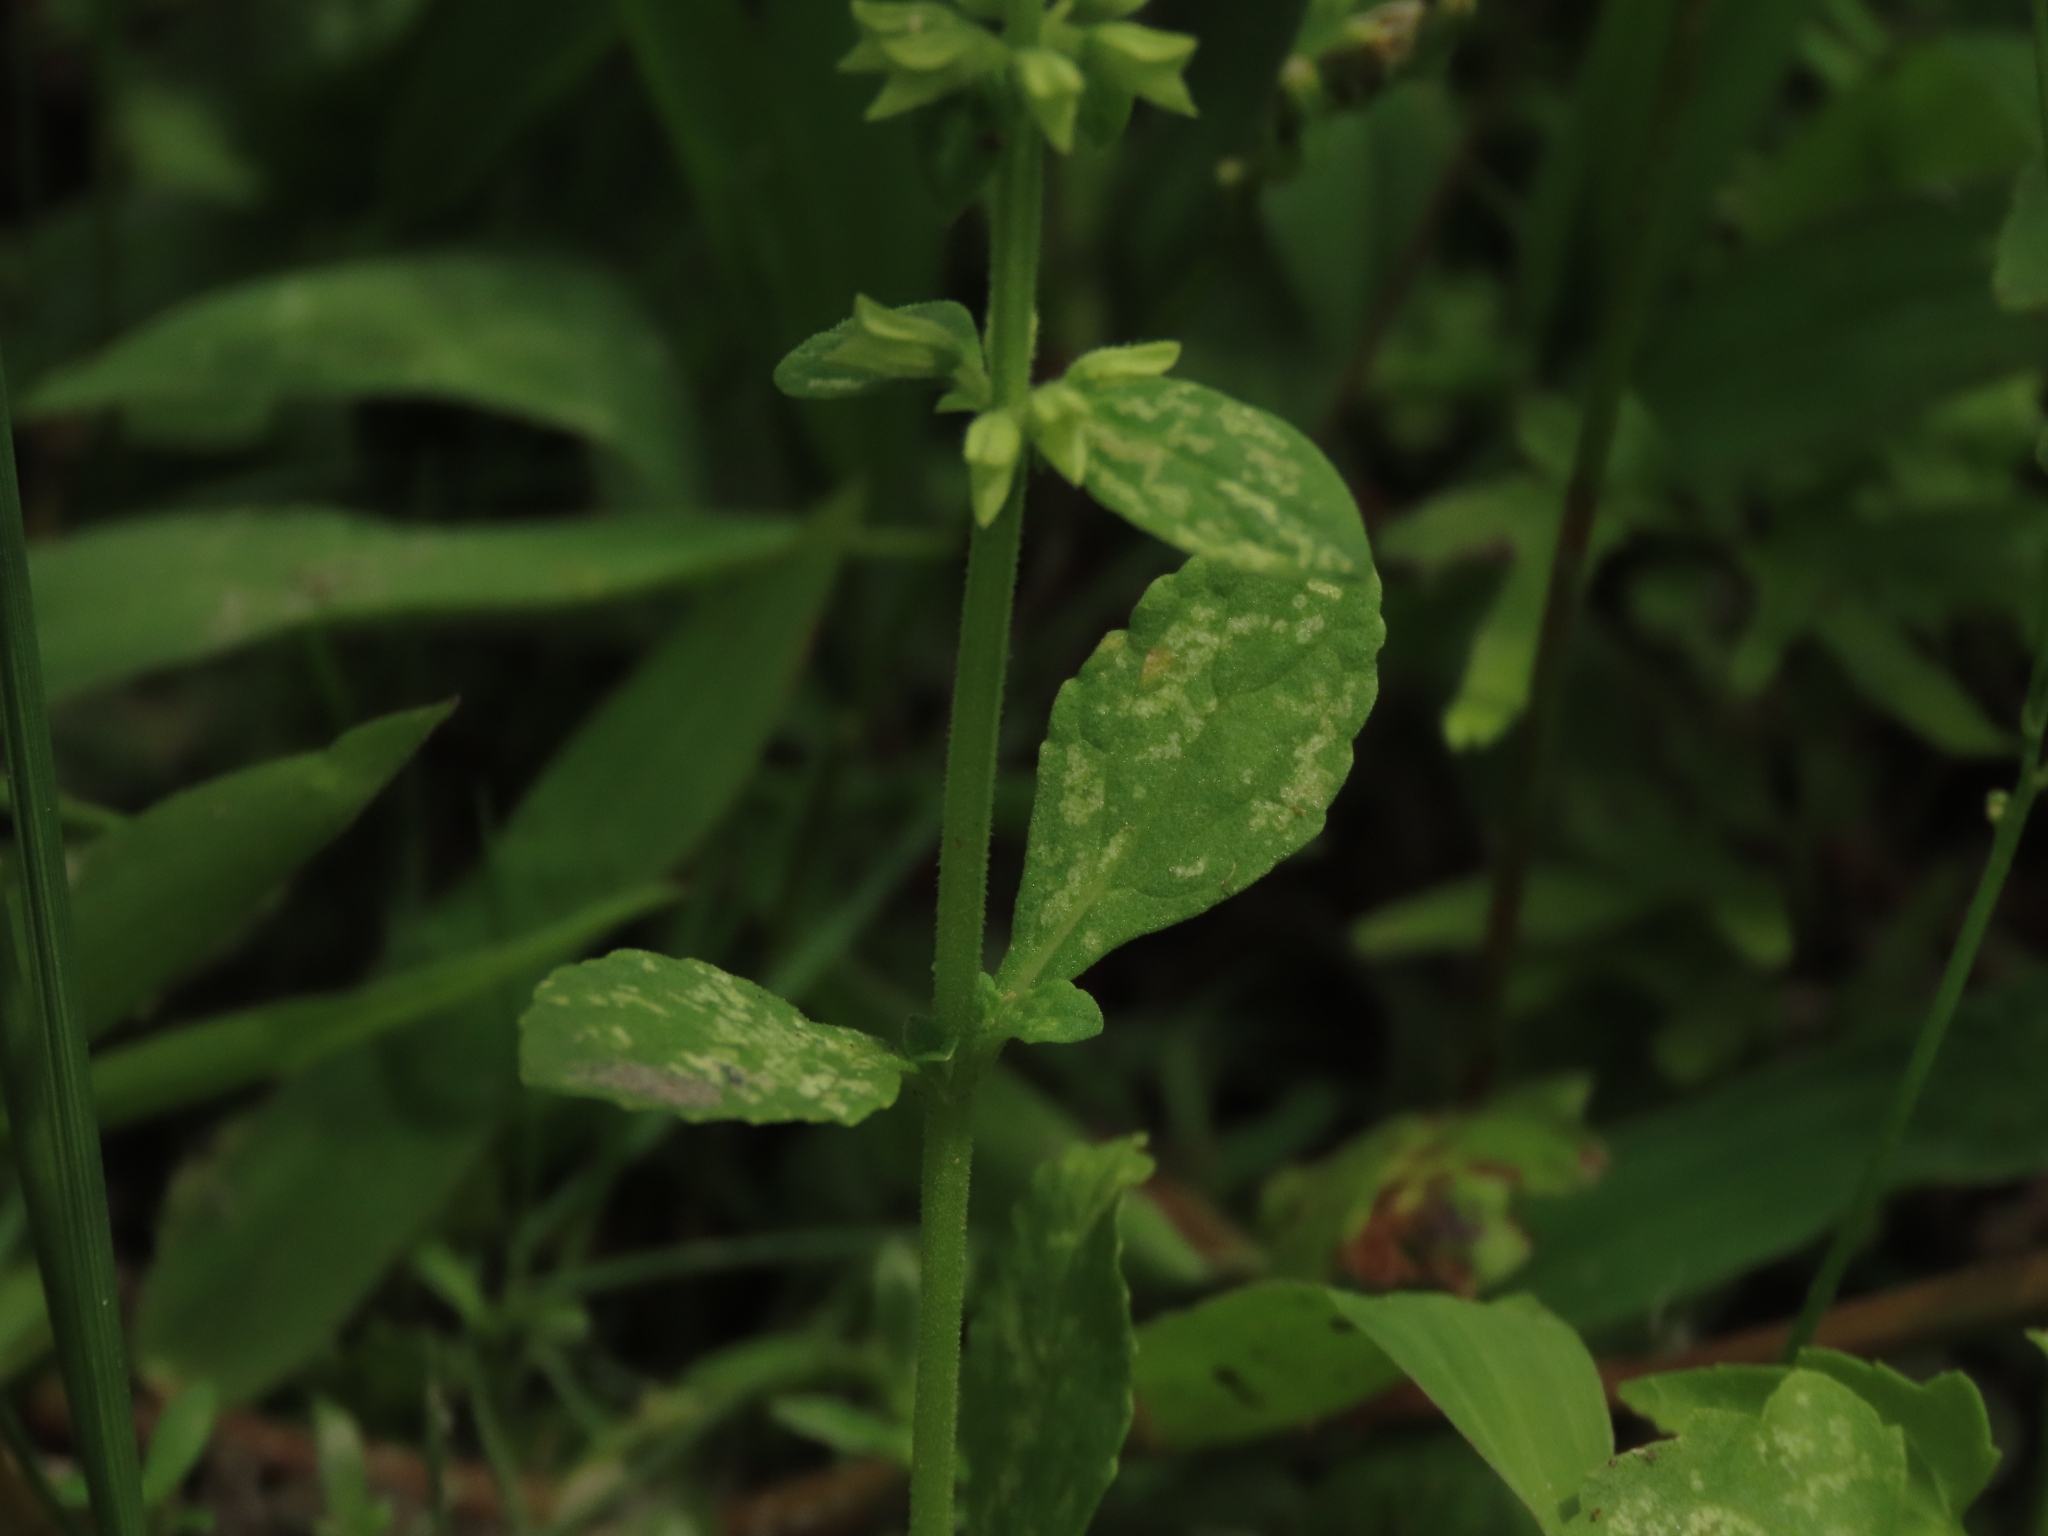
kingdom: Plantae
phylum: Tracheophyta
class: Magnoliopsida
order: Lamiales
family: Lamiaceae
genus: Salvia
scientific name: Salvia plebeia
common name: Australian sage
